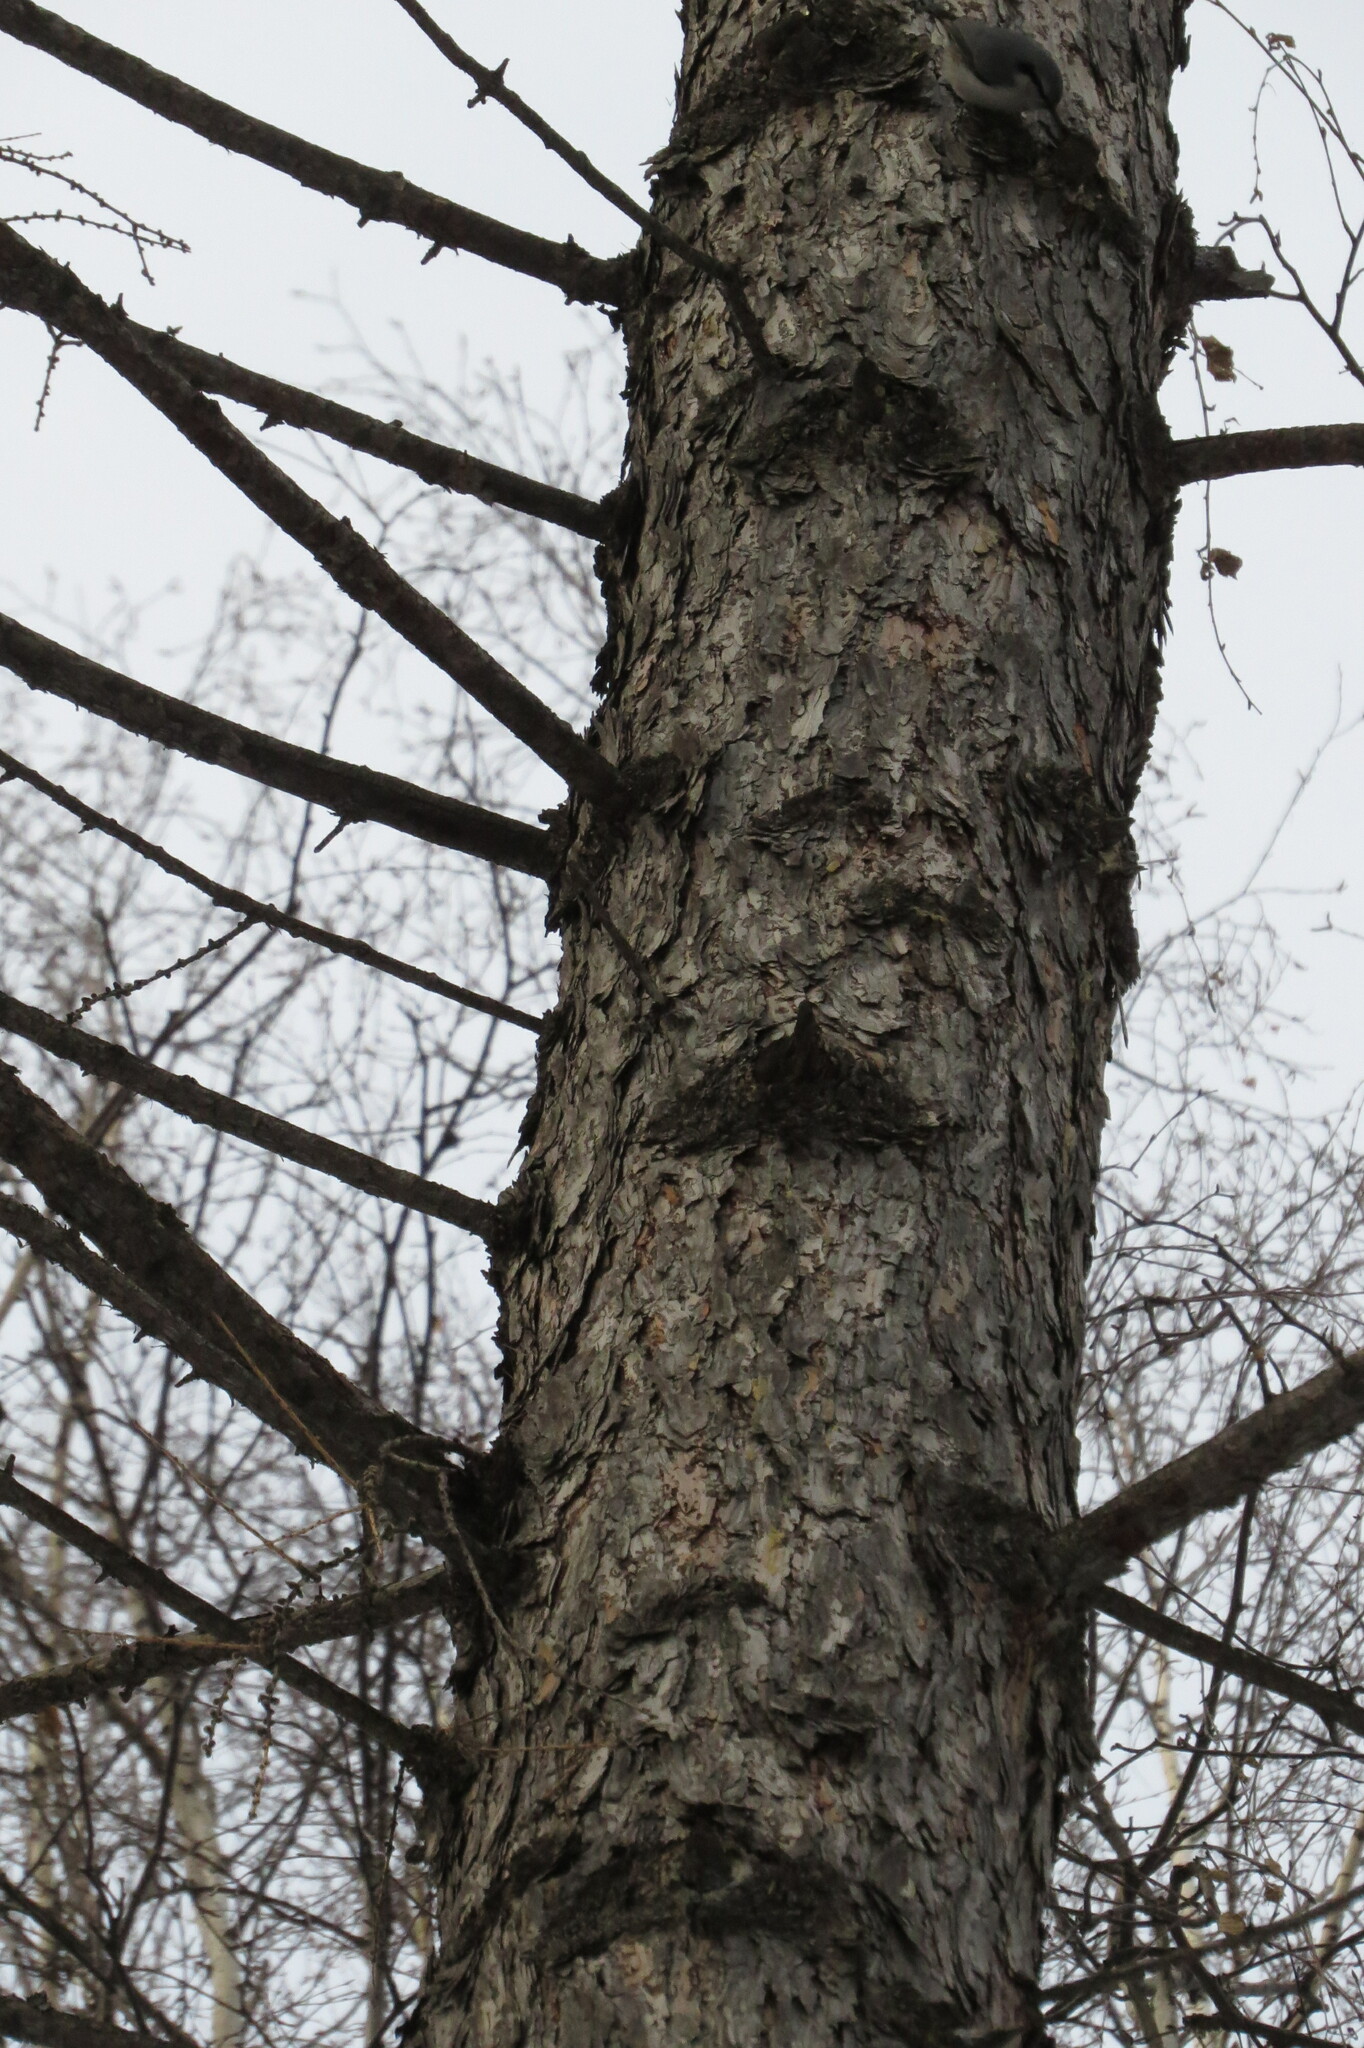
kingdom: Animalia
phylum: Chordata
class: Aves
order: Passeriformes
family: Sittidae
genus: Sitta
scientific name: Sitta europaea
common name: Eurasian nuthatch
